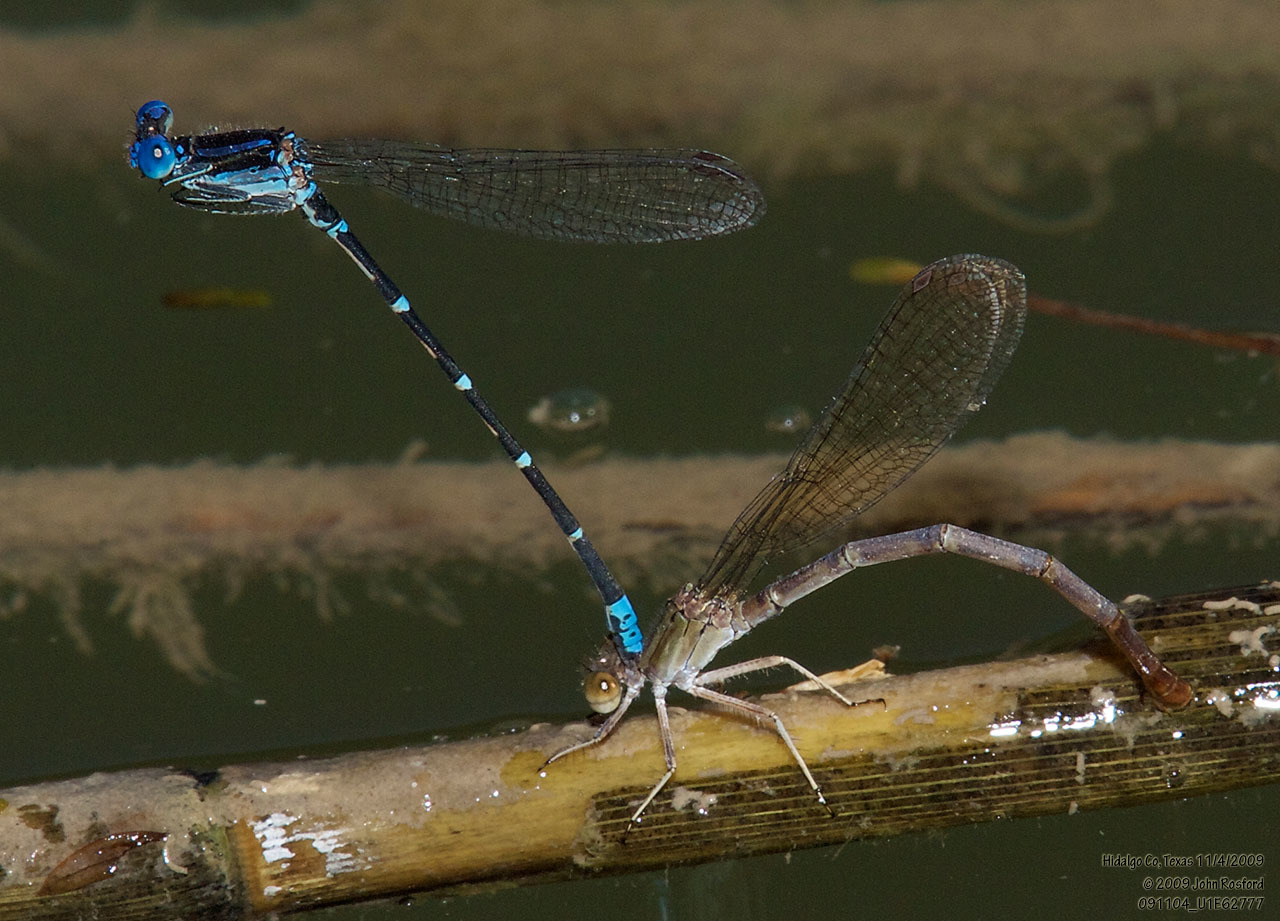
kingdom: Animalia
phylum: Arthropoda
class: Insecta
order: Odonata
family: Coenagrionidae
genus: Argia
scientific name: Argia sedula
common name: Blue-ringed dancer
